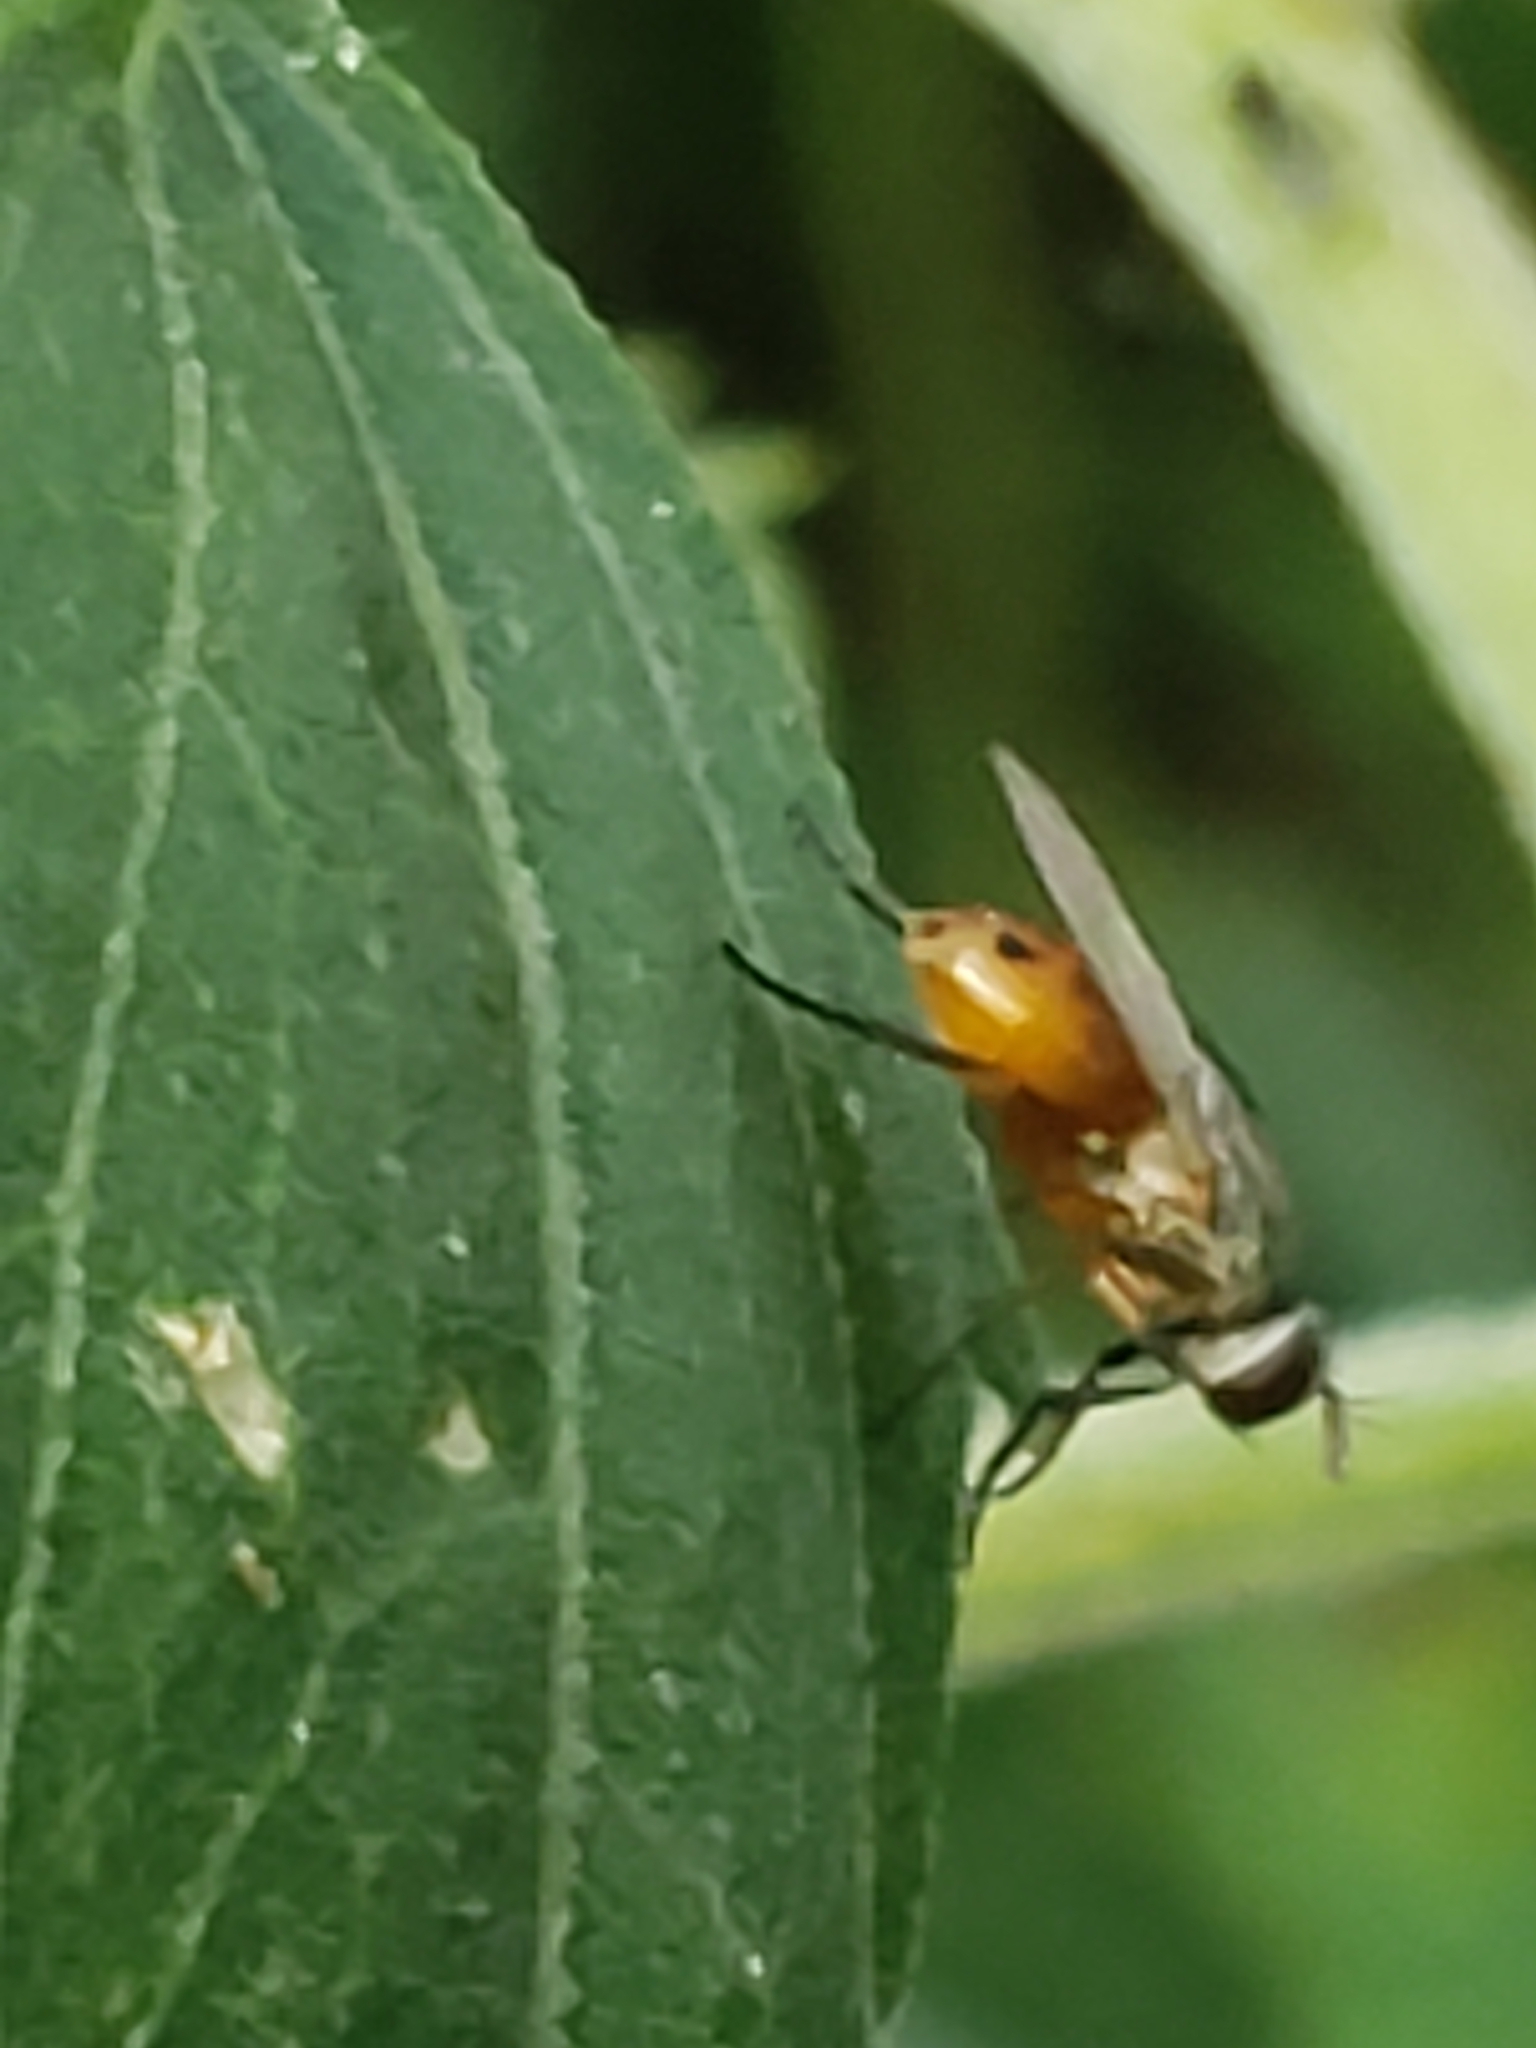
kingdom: Animalia
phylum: Arthropoda
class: Insecta
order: Diptera
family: Muscidae
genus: Atherigona
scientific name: Atherigona reversura
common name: Bermudagrass stem maggot
